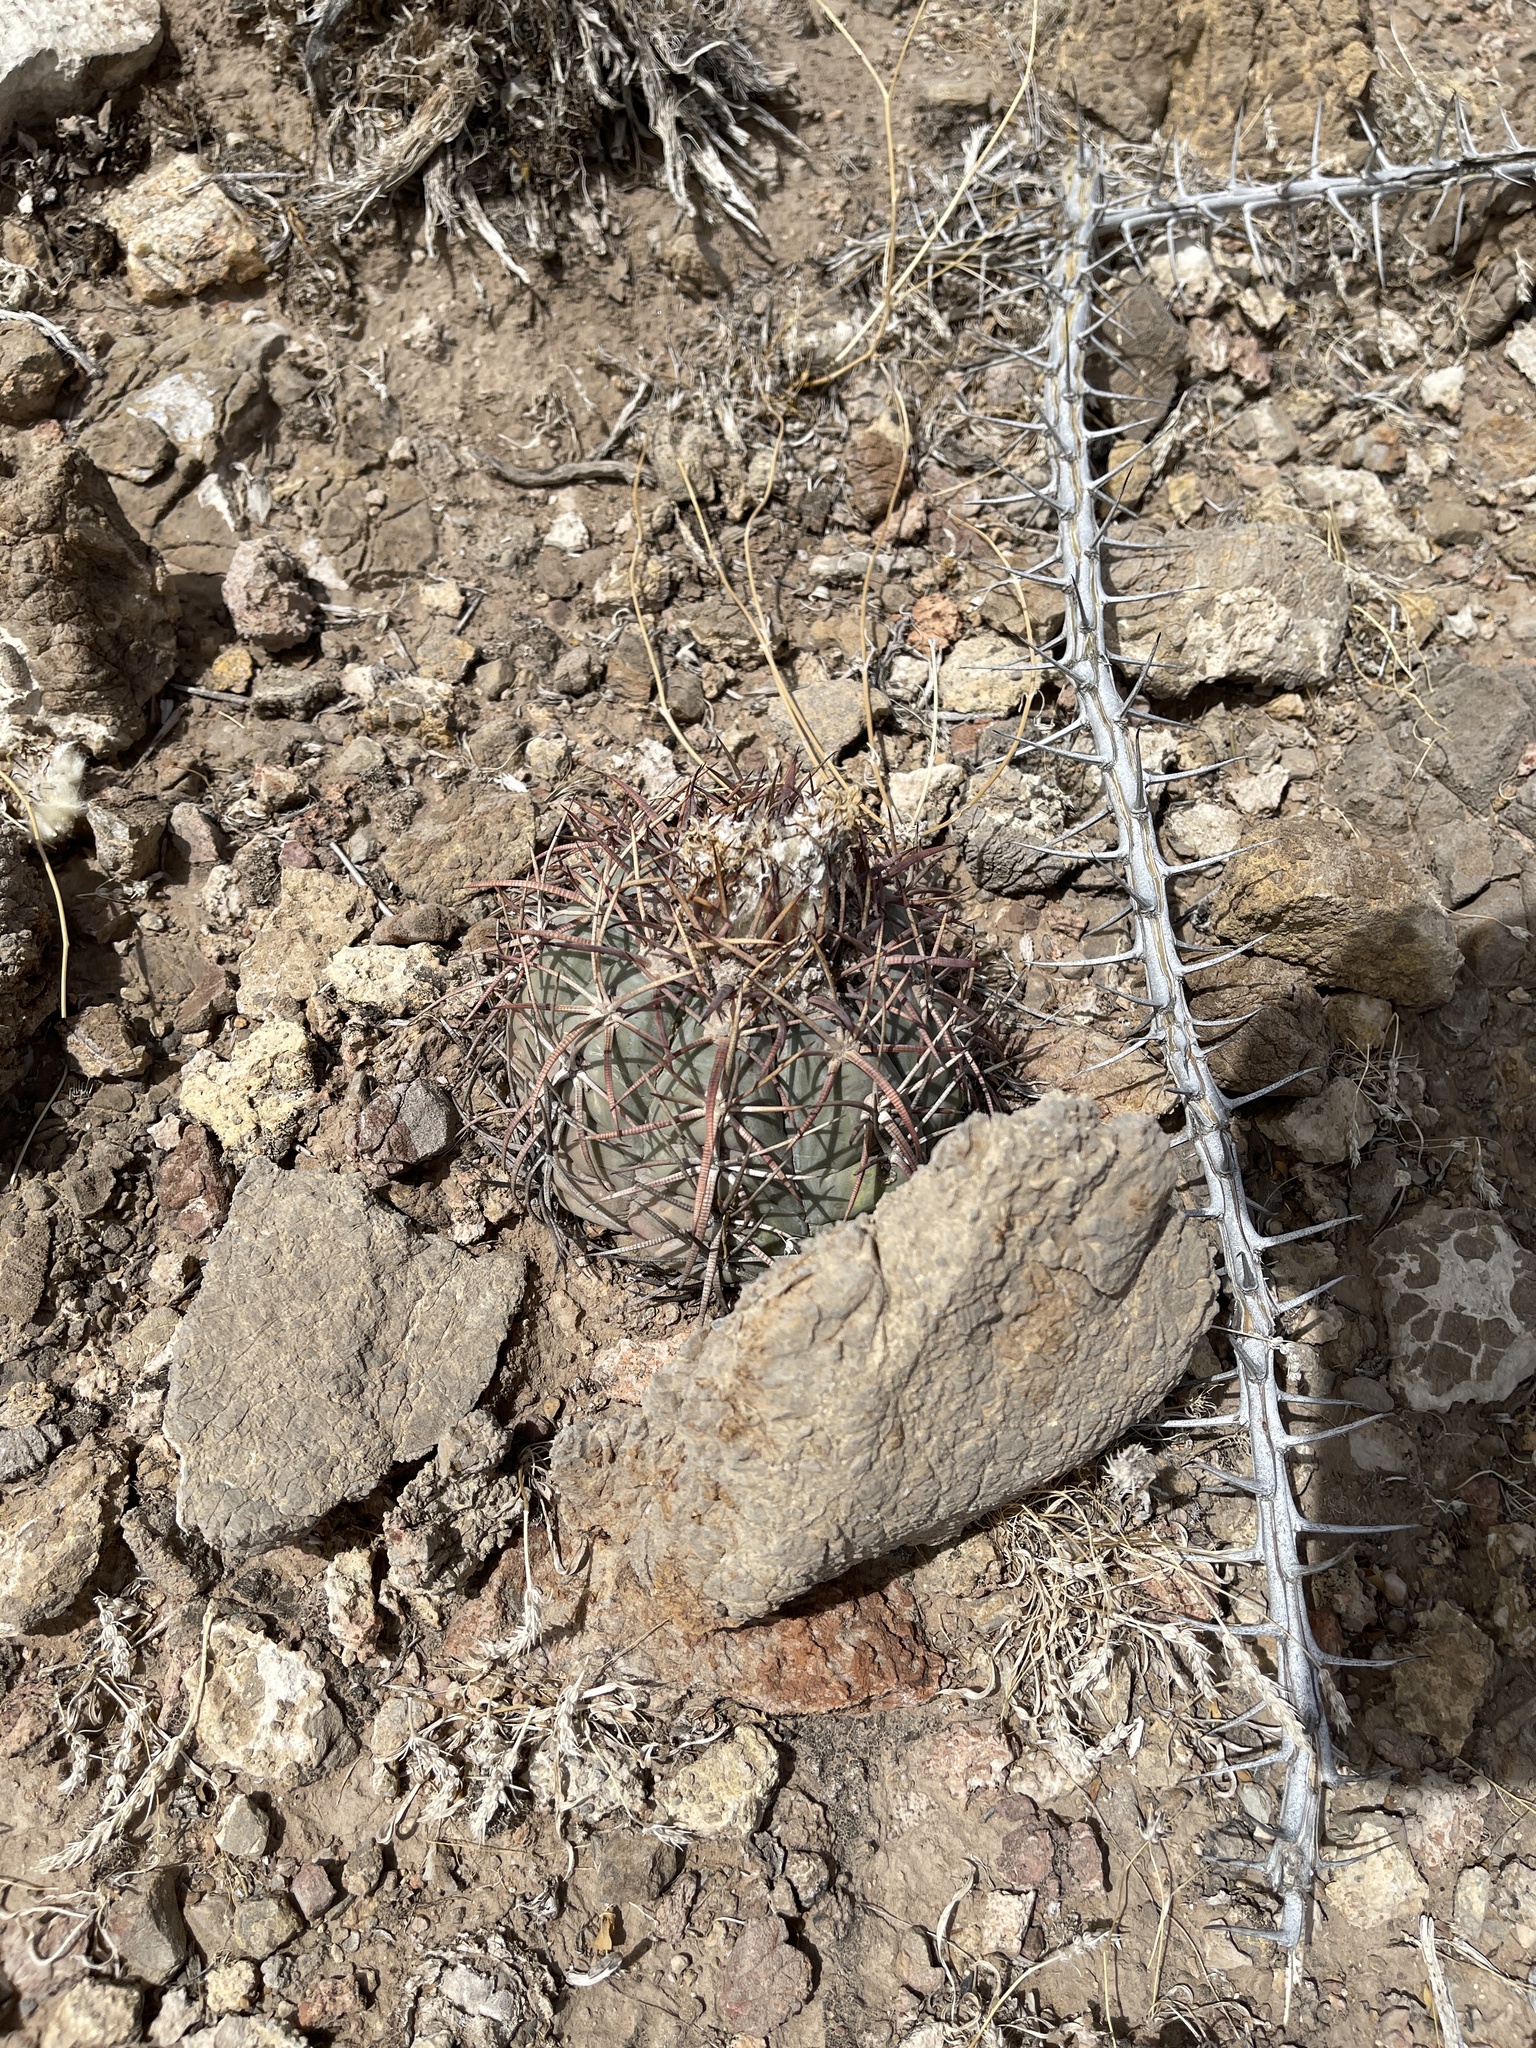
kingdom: Plantae
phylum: Tracheophyta
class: Magnoliopsida
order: Caryophyllales
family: Cactaceae
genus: Echinocactus
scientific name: Echinocactus horizonthalonius
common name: Devilshead
